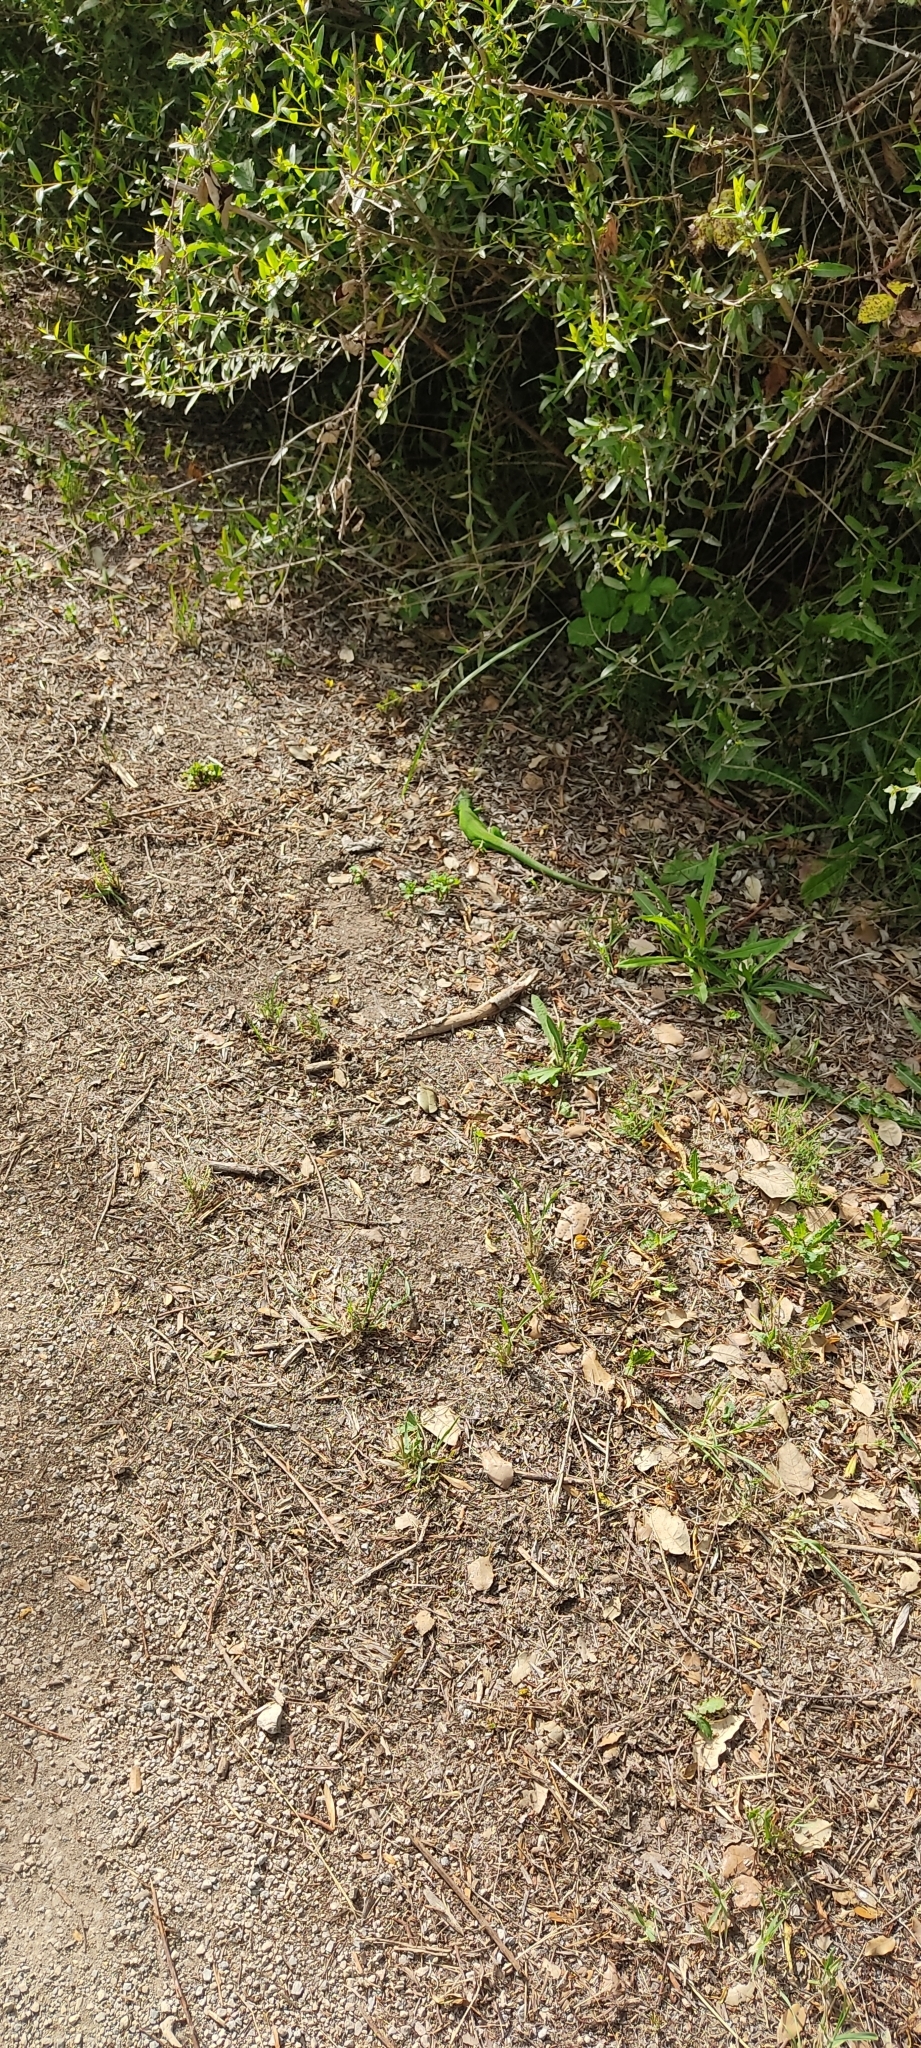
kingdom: Animalia
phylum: Chordata
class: Squamata
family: Lacertidae
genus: Lacerta
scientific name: Lacerta bilineata
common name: Western green lizard
